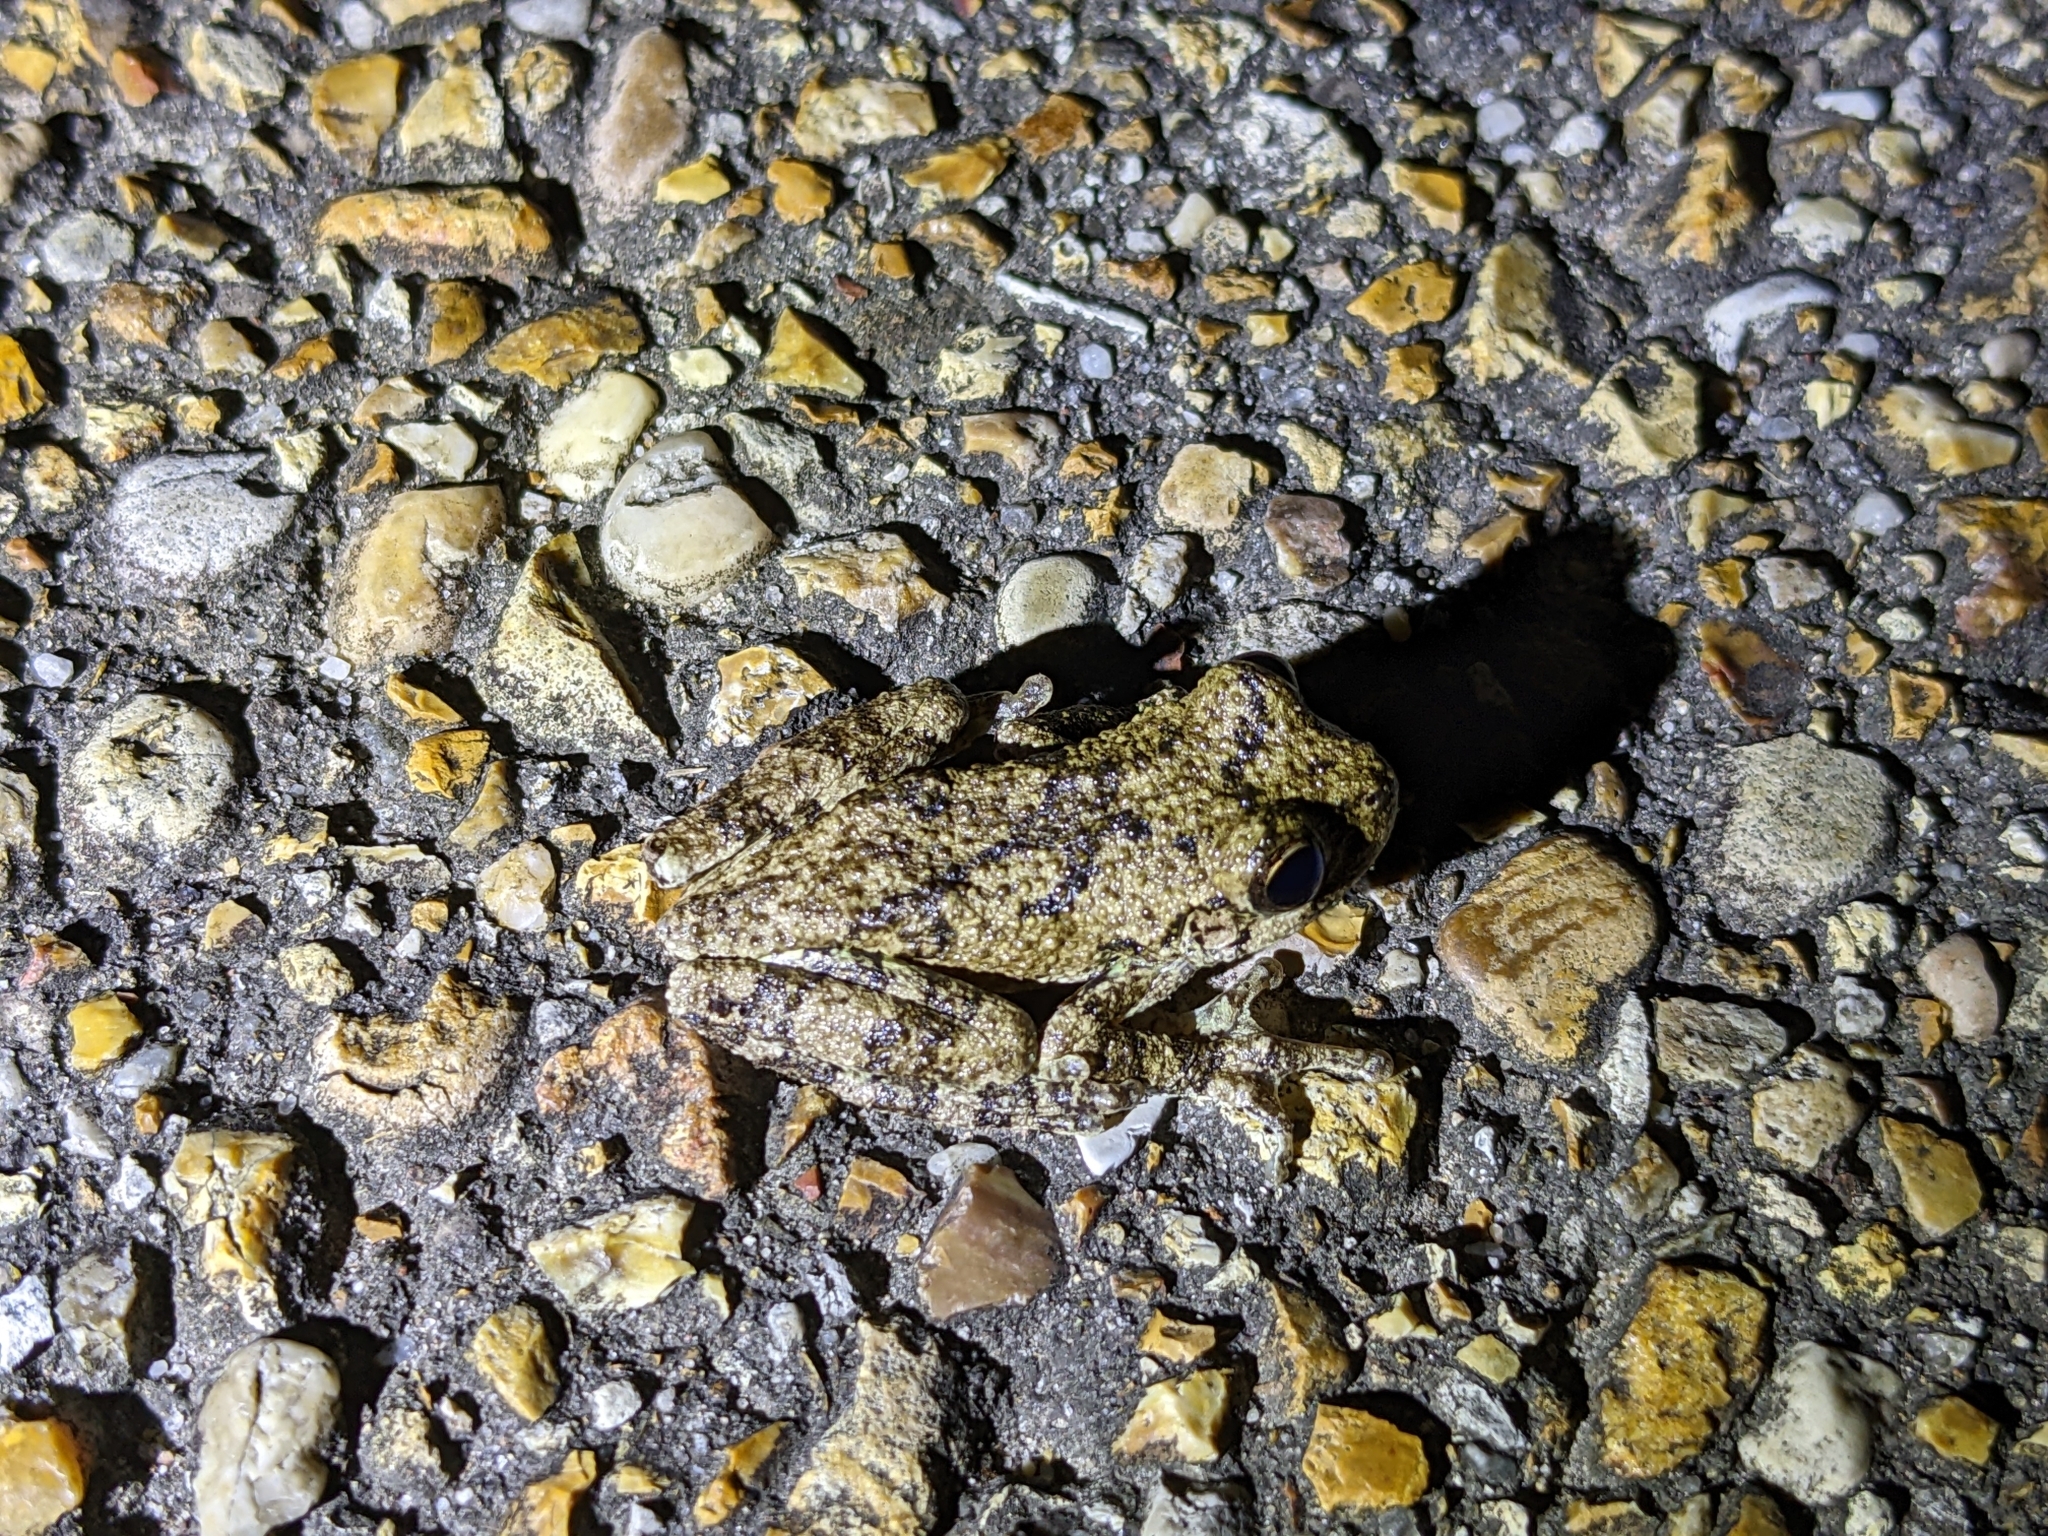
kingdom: Animalia
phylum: Chordata
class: Amphibia
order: Anura
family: Hylidae
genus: Dryophytes
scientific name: Dryophytes chrysoscelis
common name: Cope's gray treefrog
